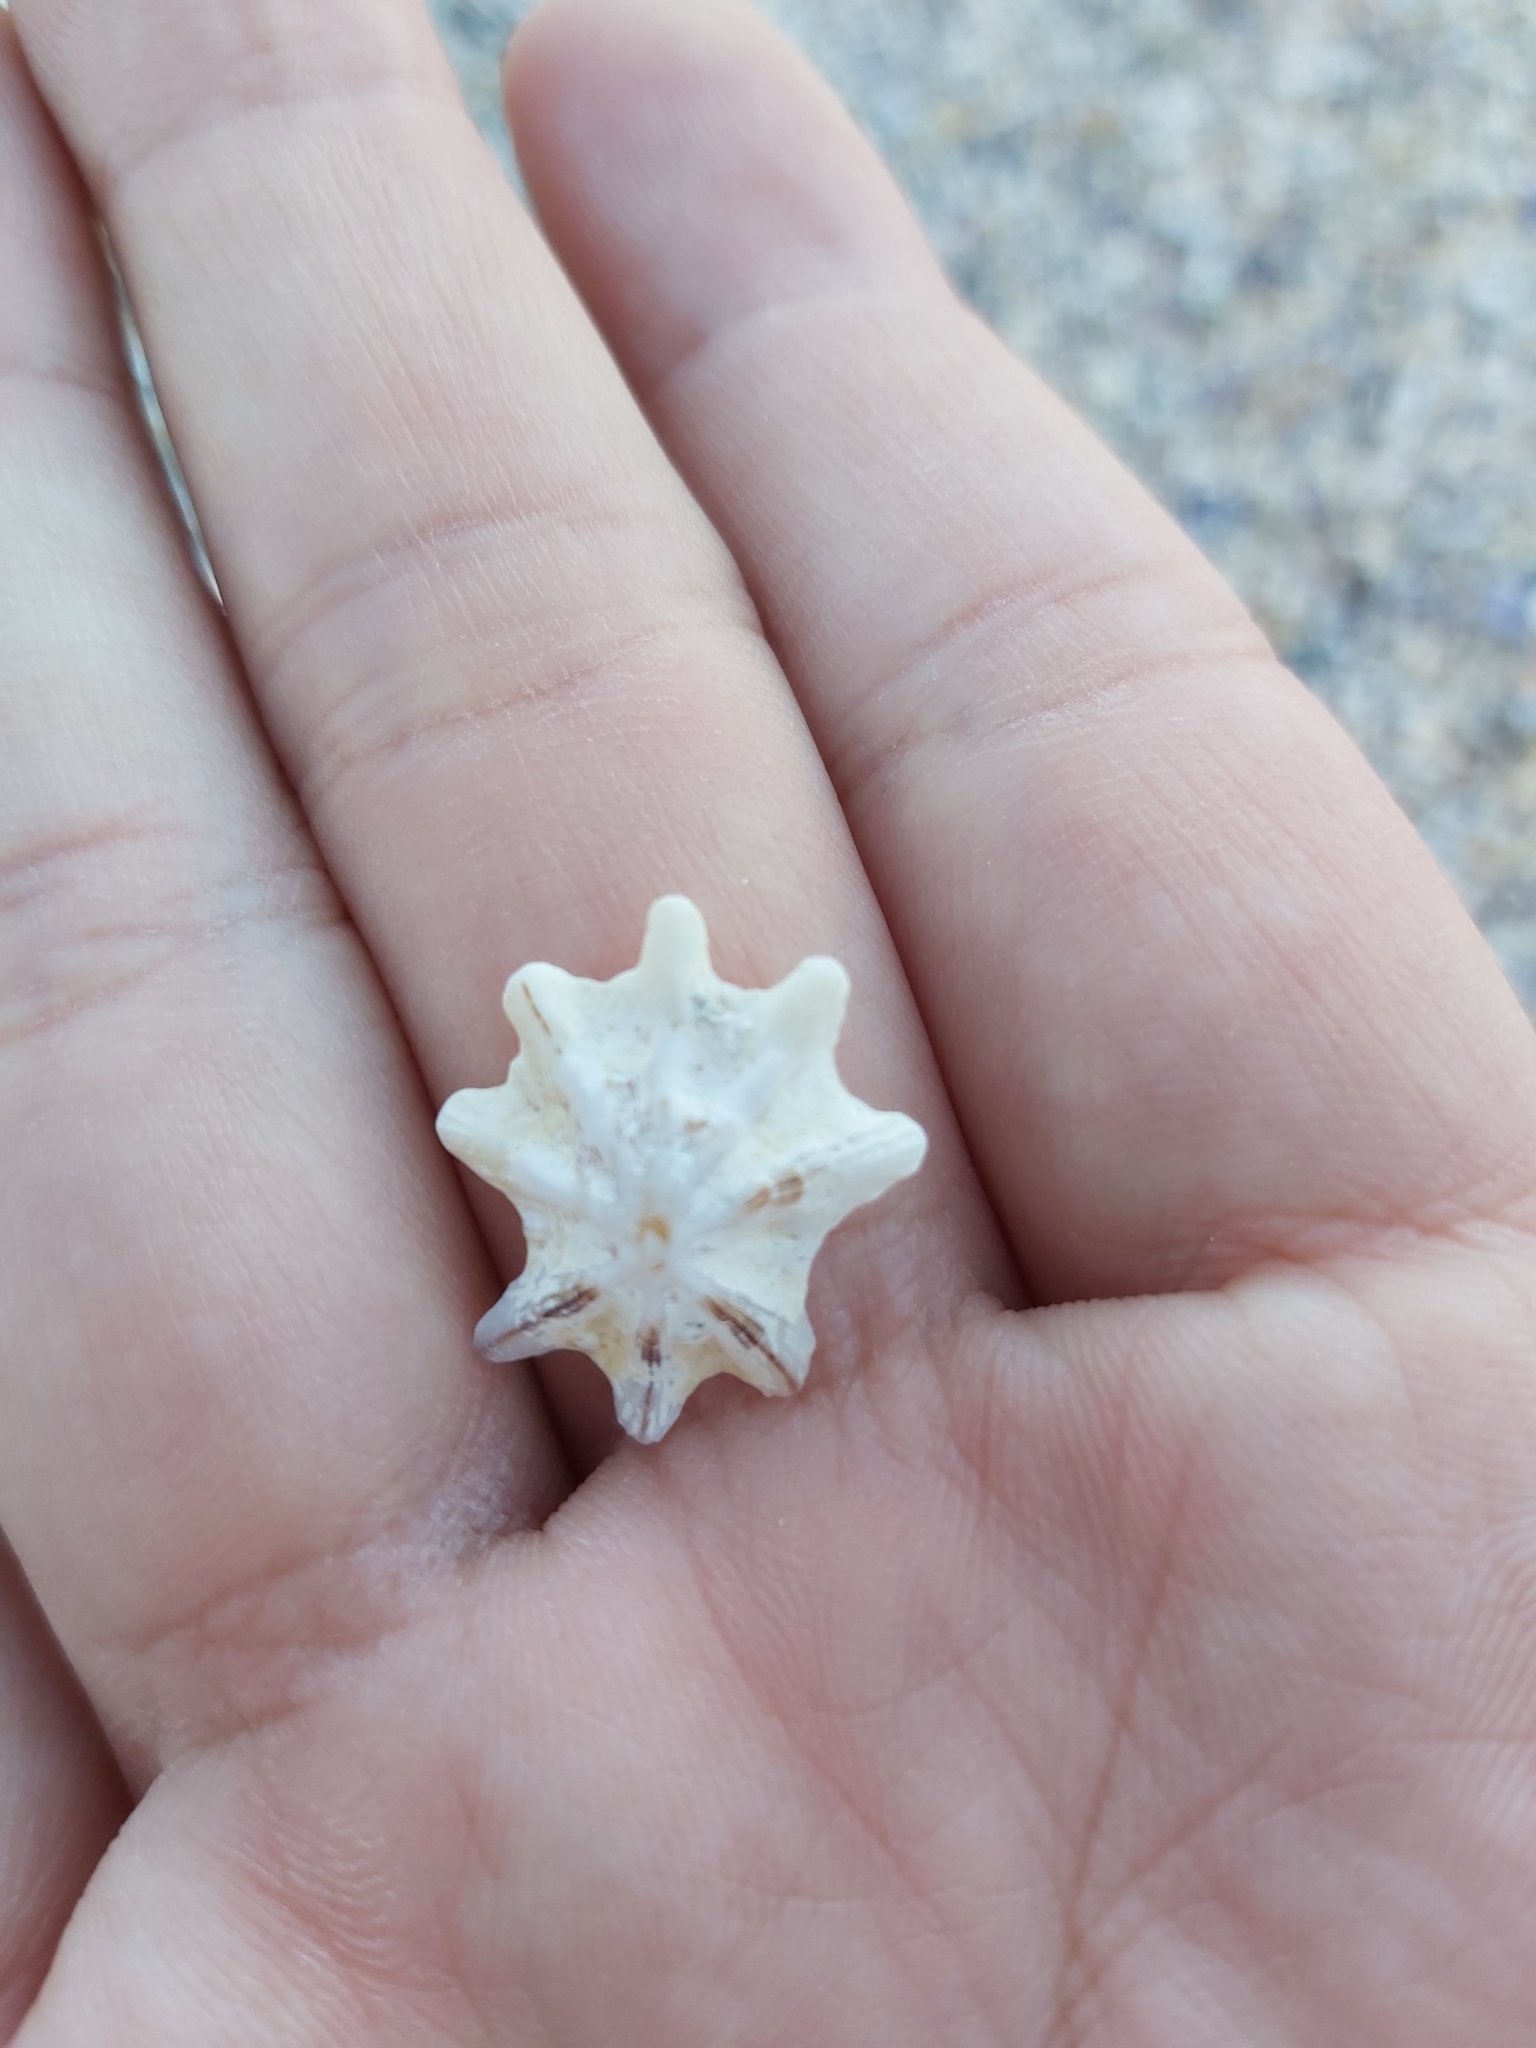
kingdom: Animalia
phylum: Mollusca
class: Gastropoda
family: Patellidae
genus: Scutellastra
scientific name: Scutellastra chapmani
